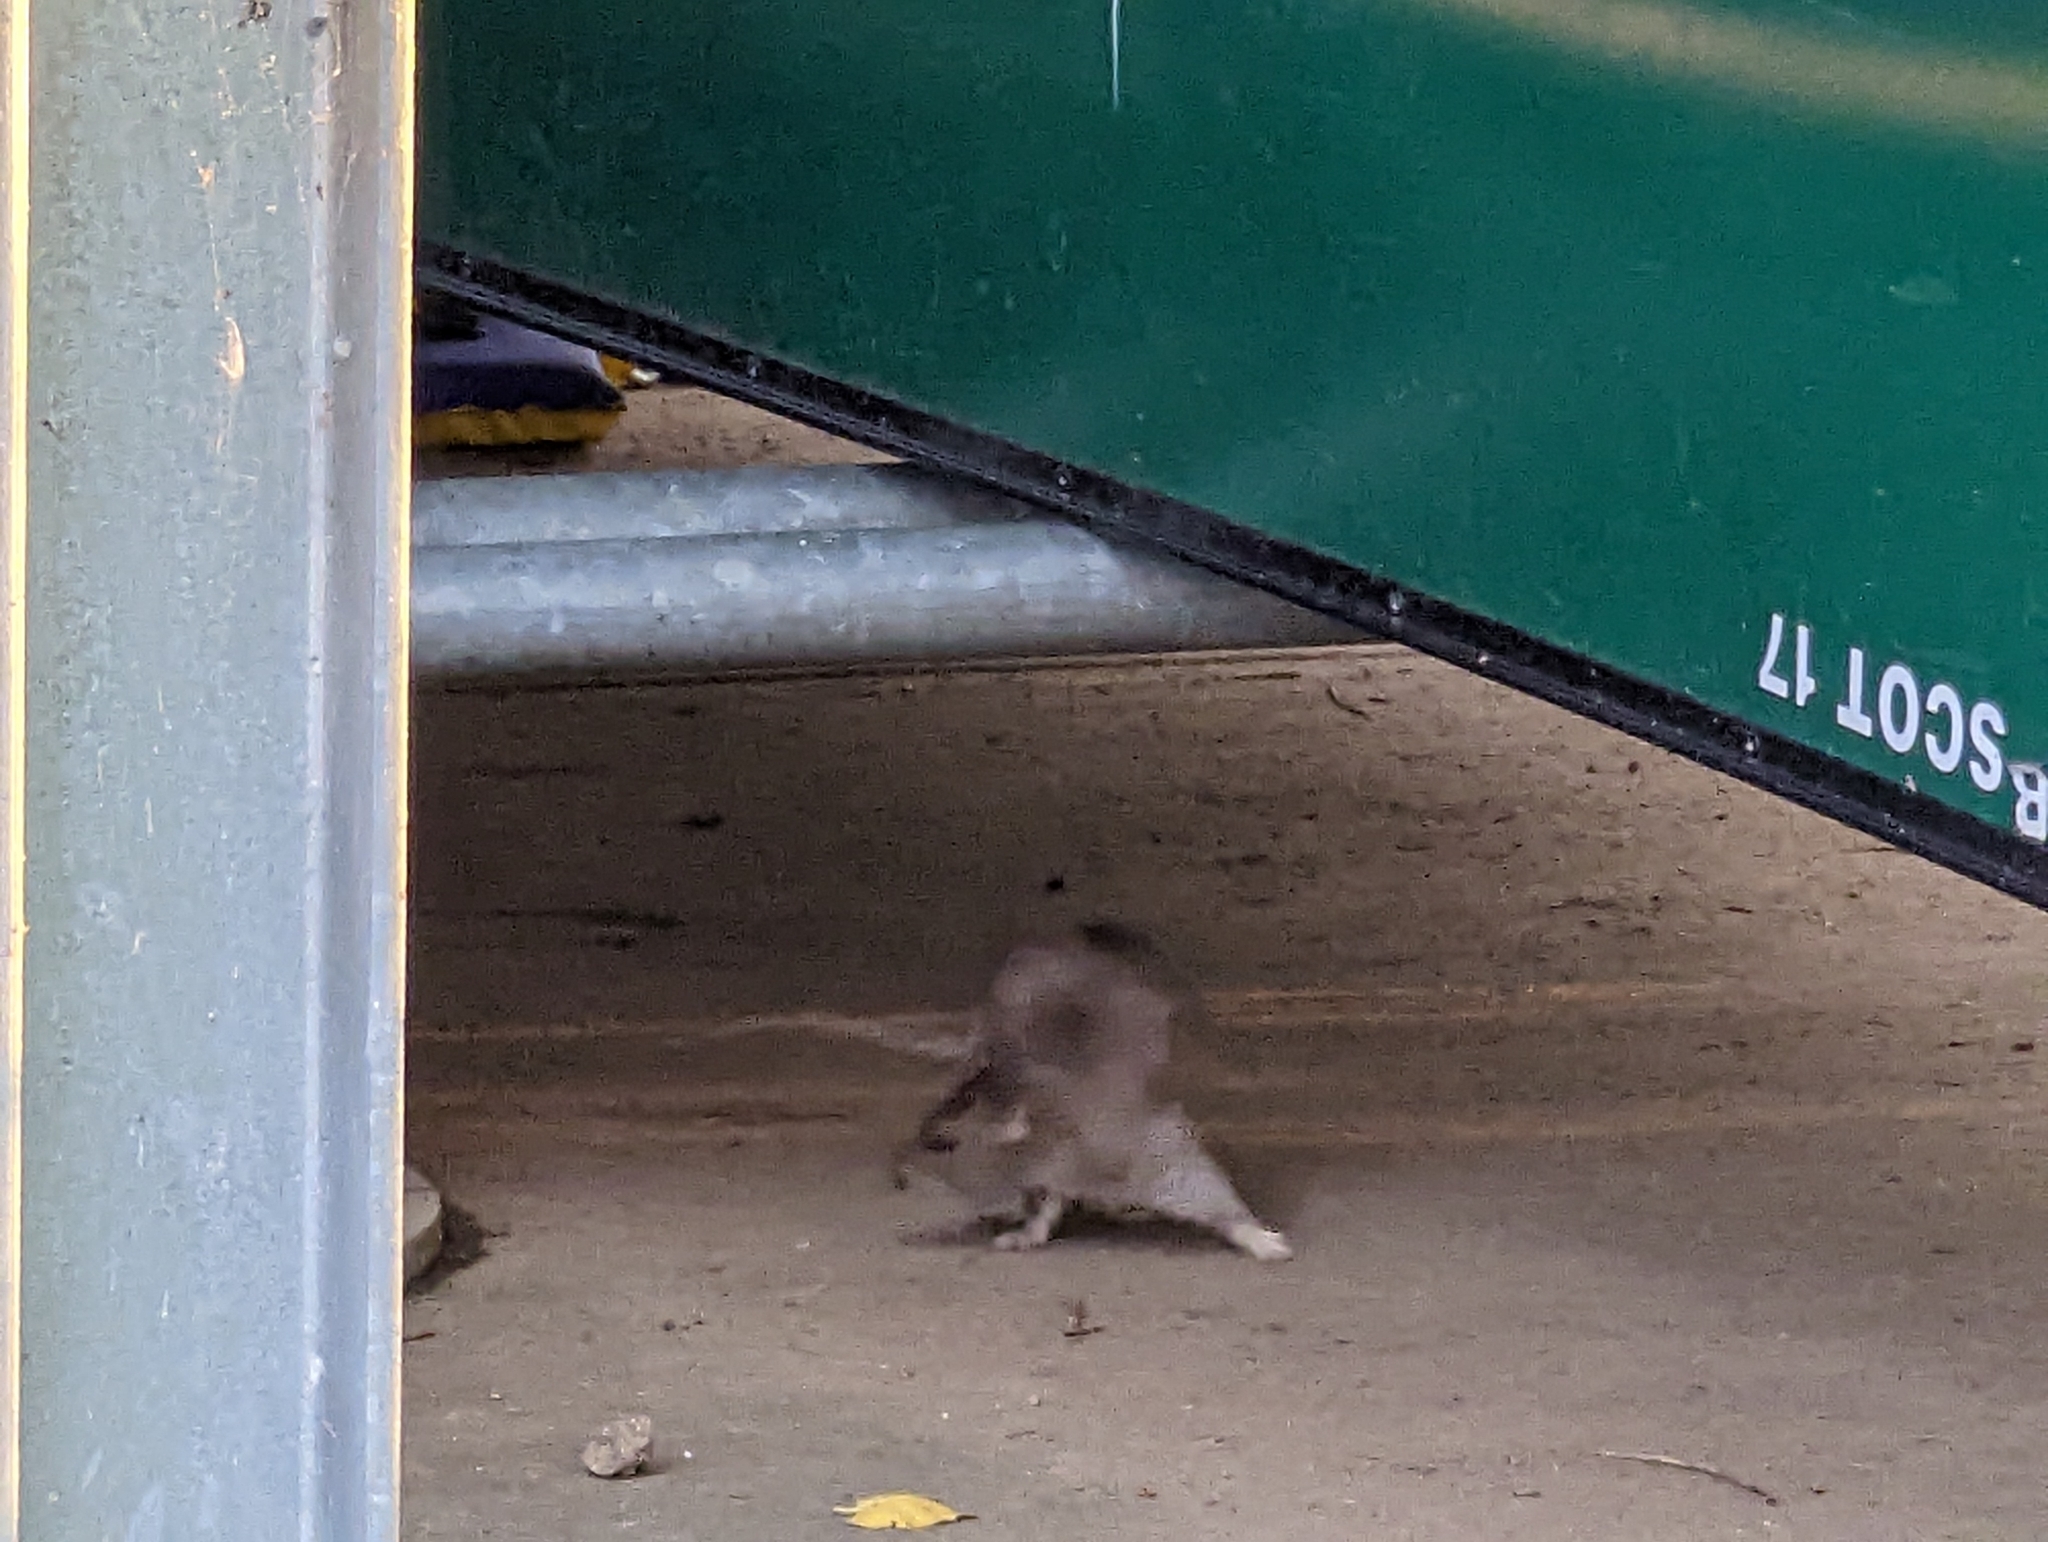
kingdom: Animalia
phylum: Chordata
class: Mammalia
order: Rodentia
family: Muridae
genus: Rattus
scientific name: Rattus norvegicus
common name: Brown rat
